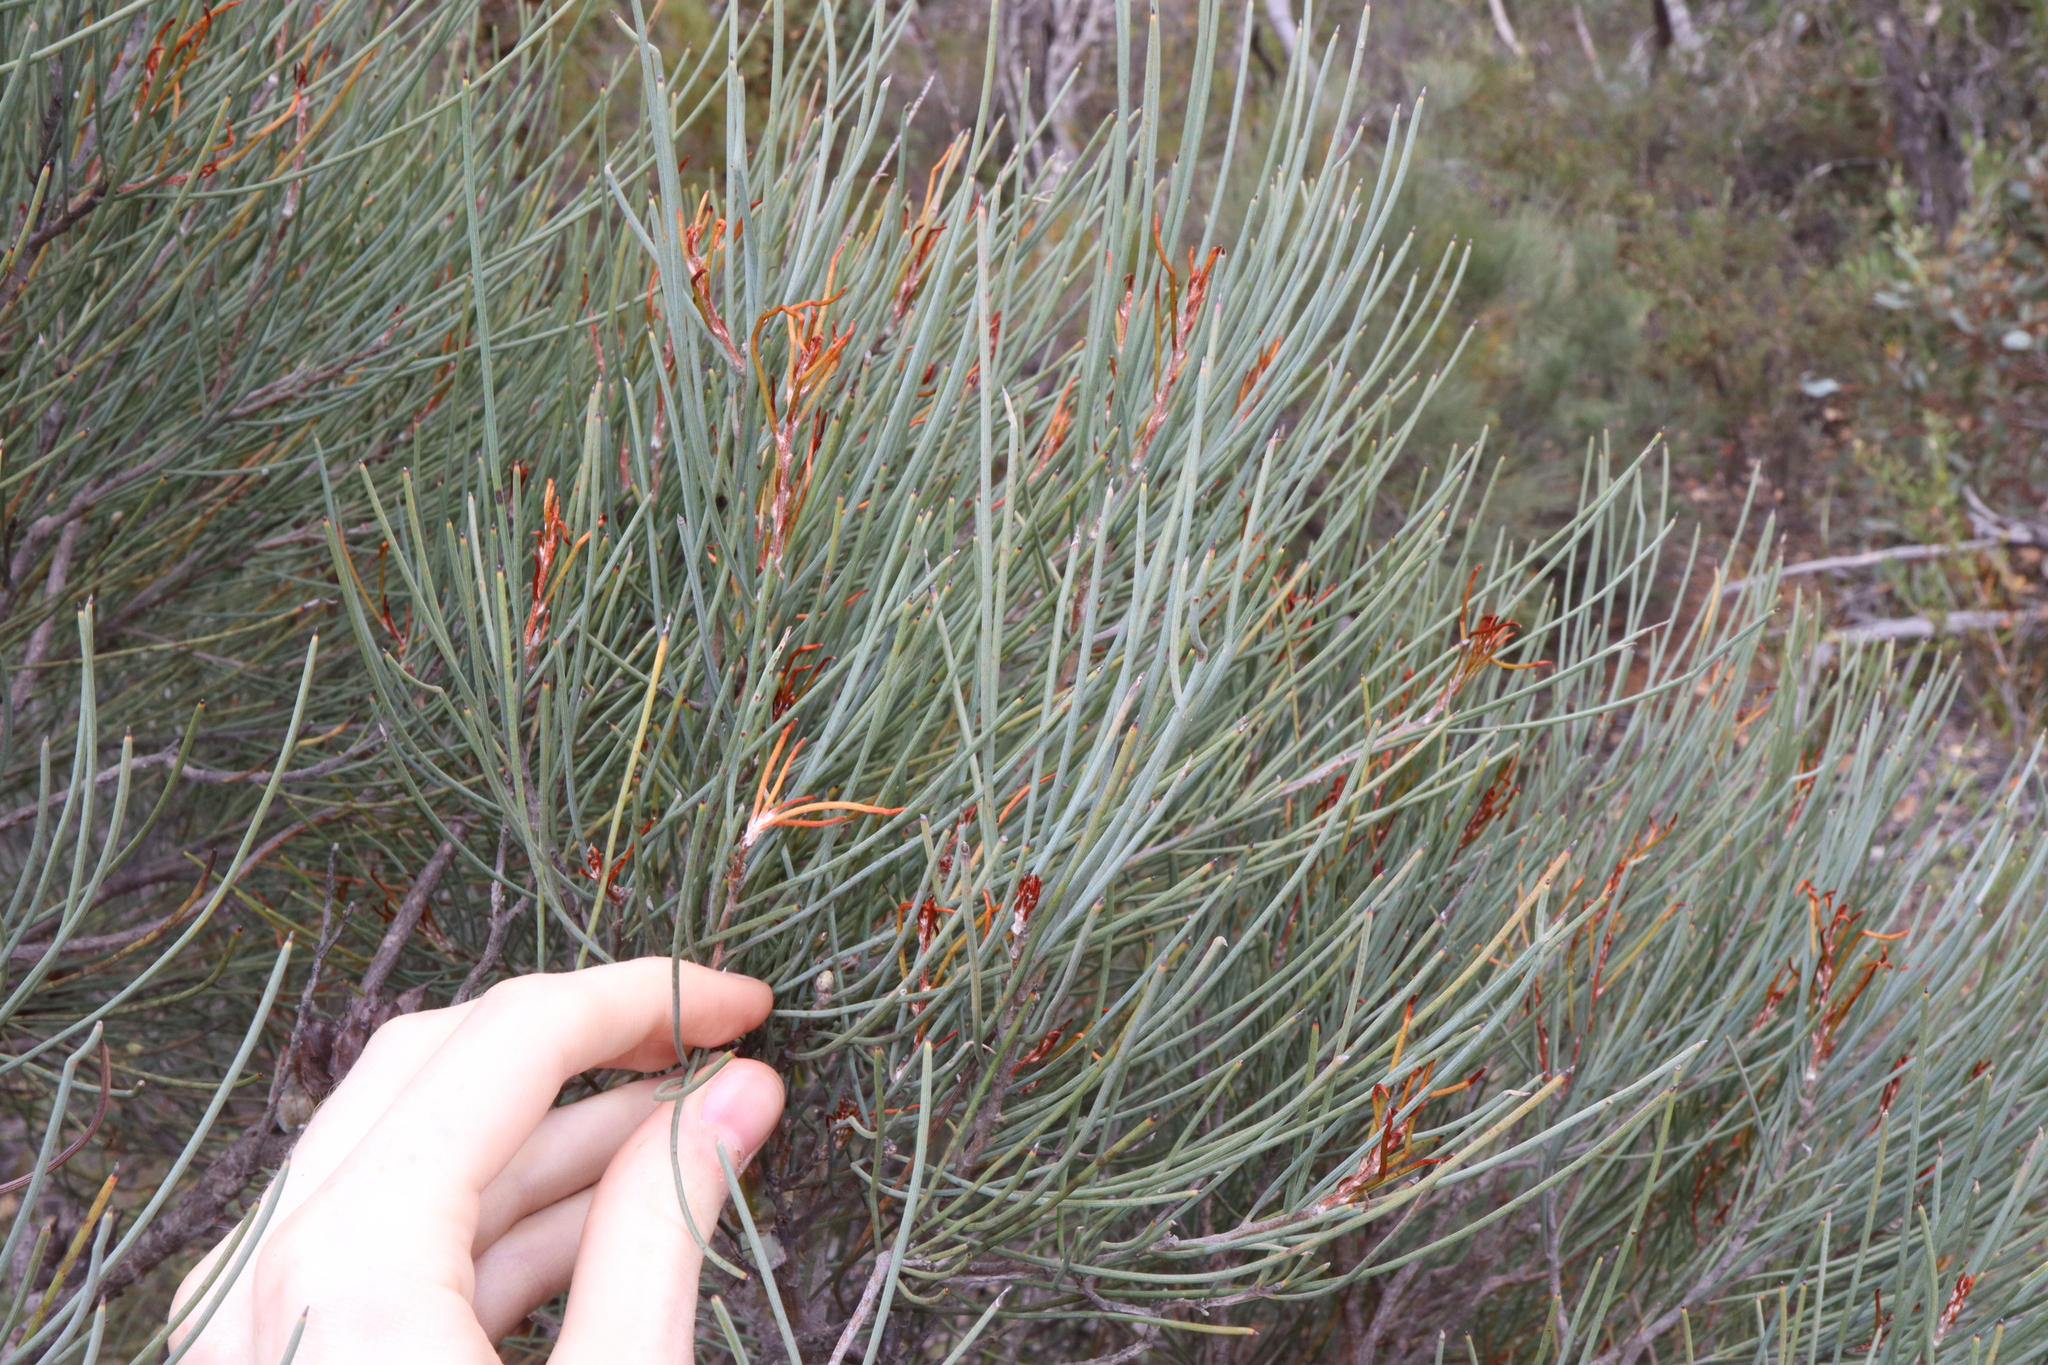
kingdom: Plantae
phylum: Tracheophyta
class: Magnoliopsida
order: Proteales
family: Proteaceae
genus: Hakea
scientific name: Hakea subsulcata
